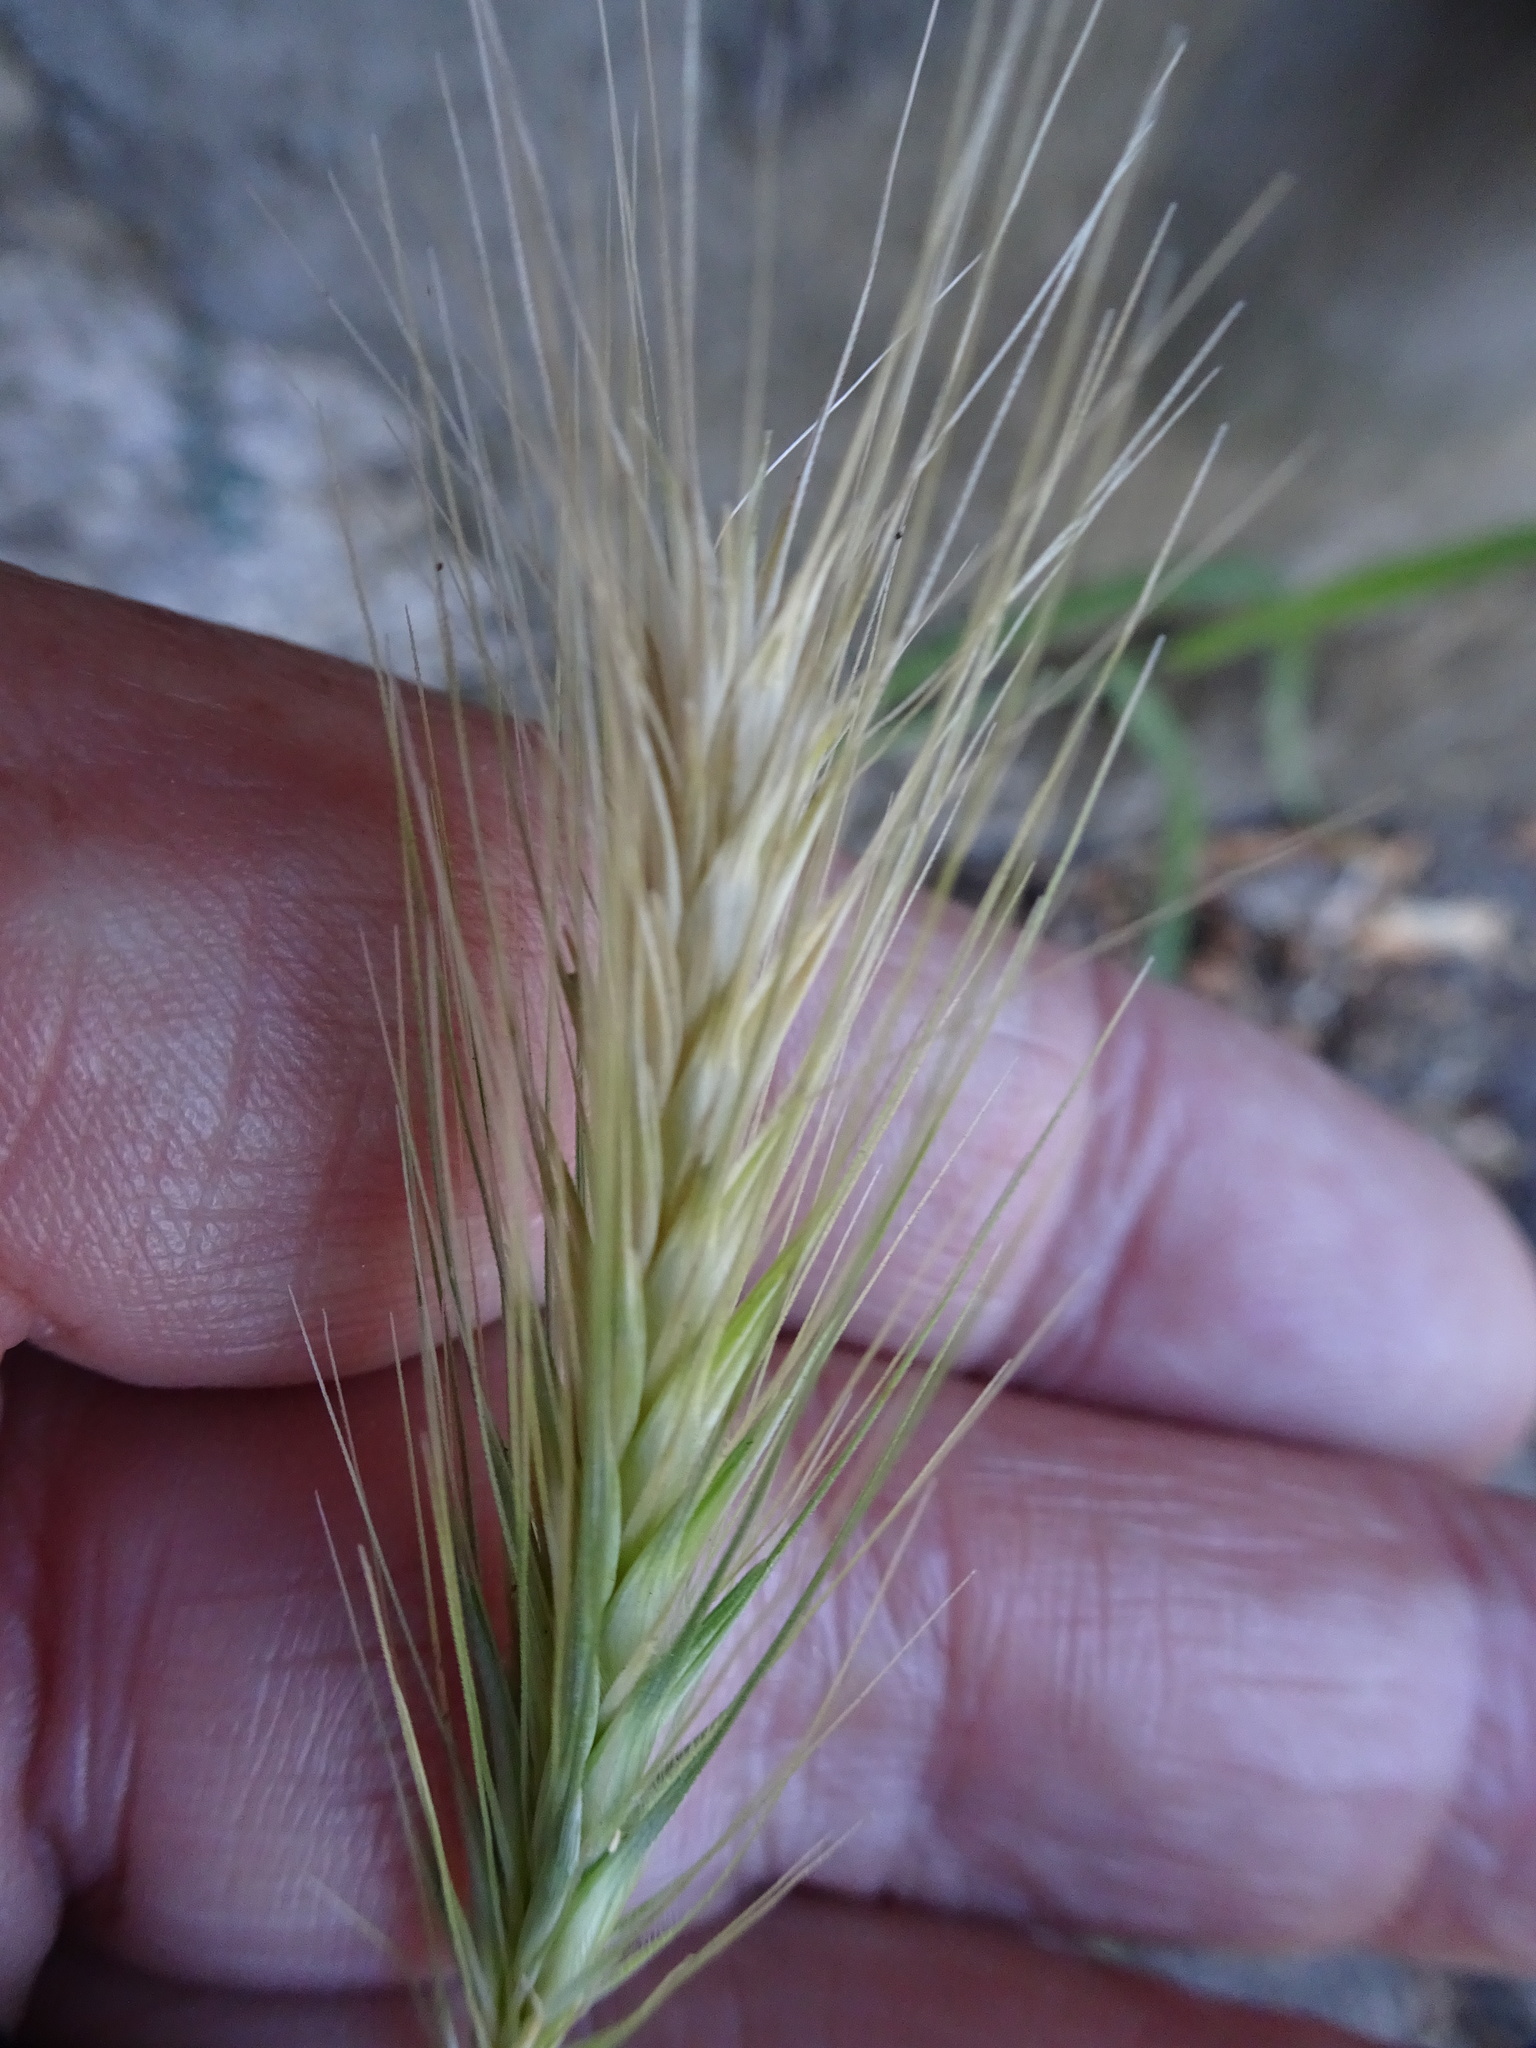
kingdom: Plantae
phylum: Tracheophyta
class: Liliopsida
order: Poales
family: Poaceae
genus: Hordeum
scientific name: Hordeum murinum
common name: Wall barley
